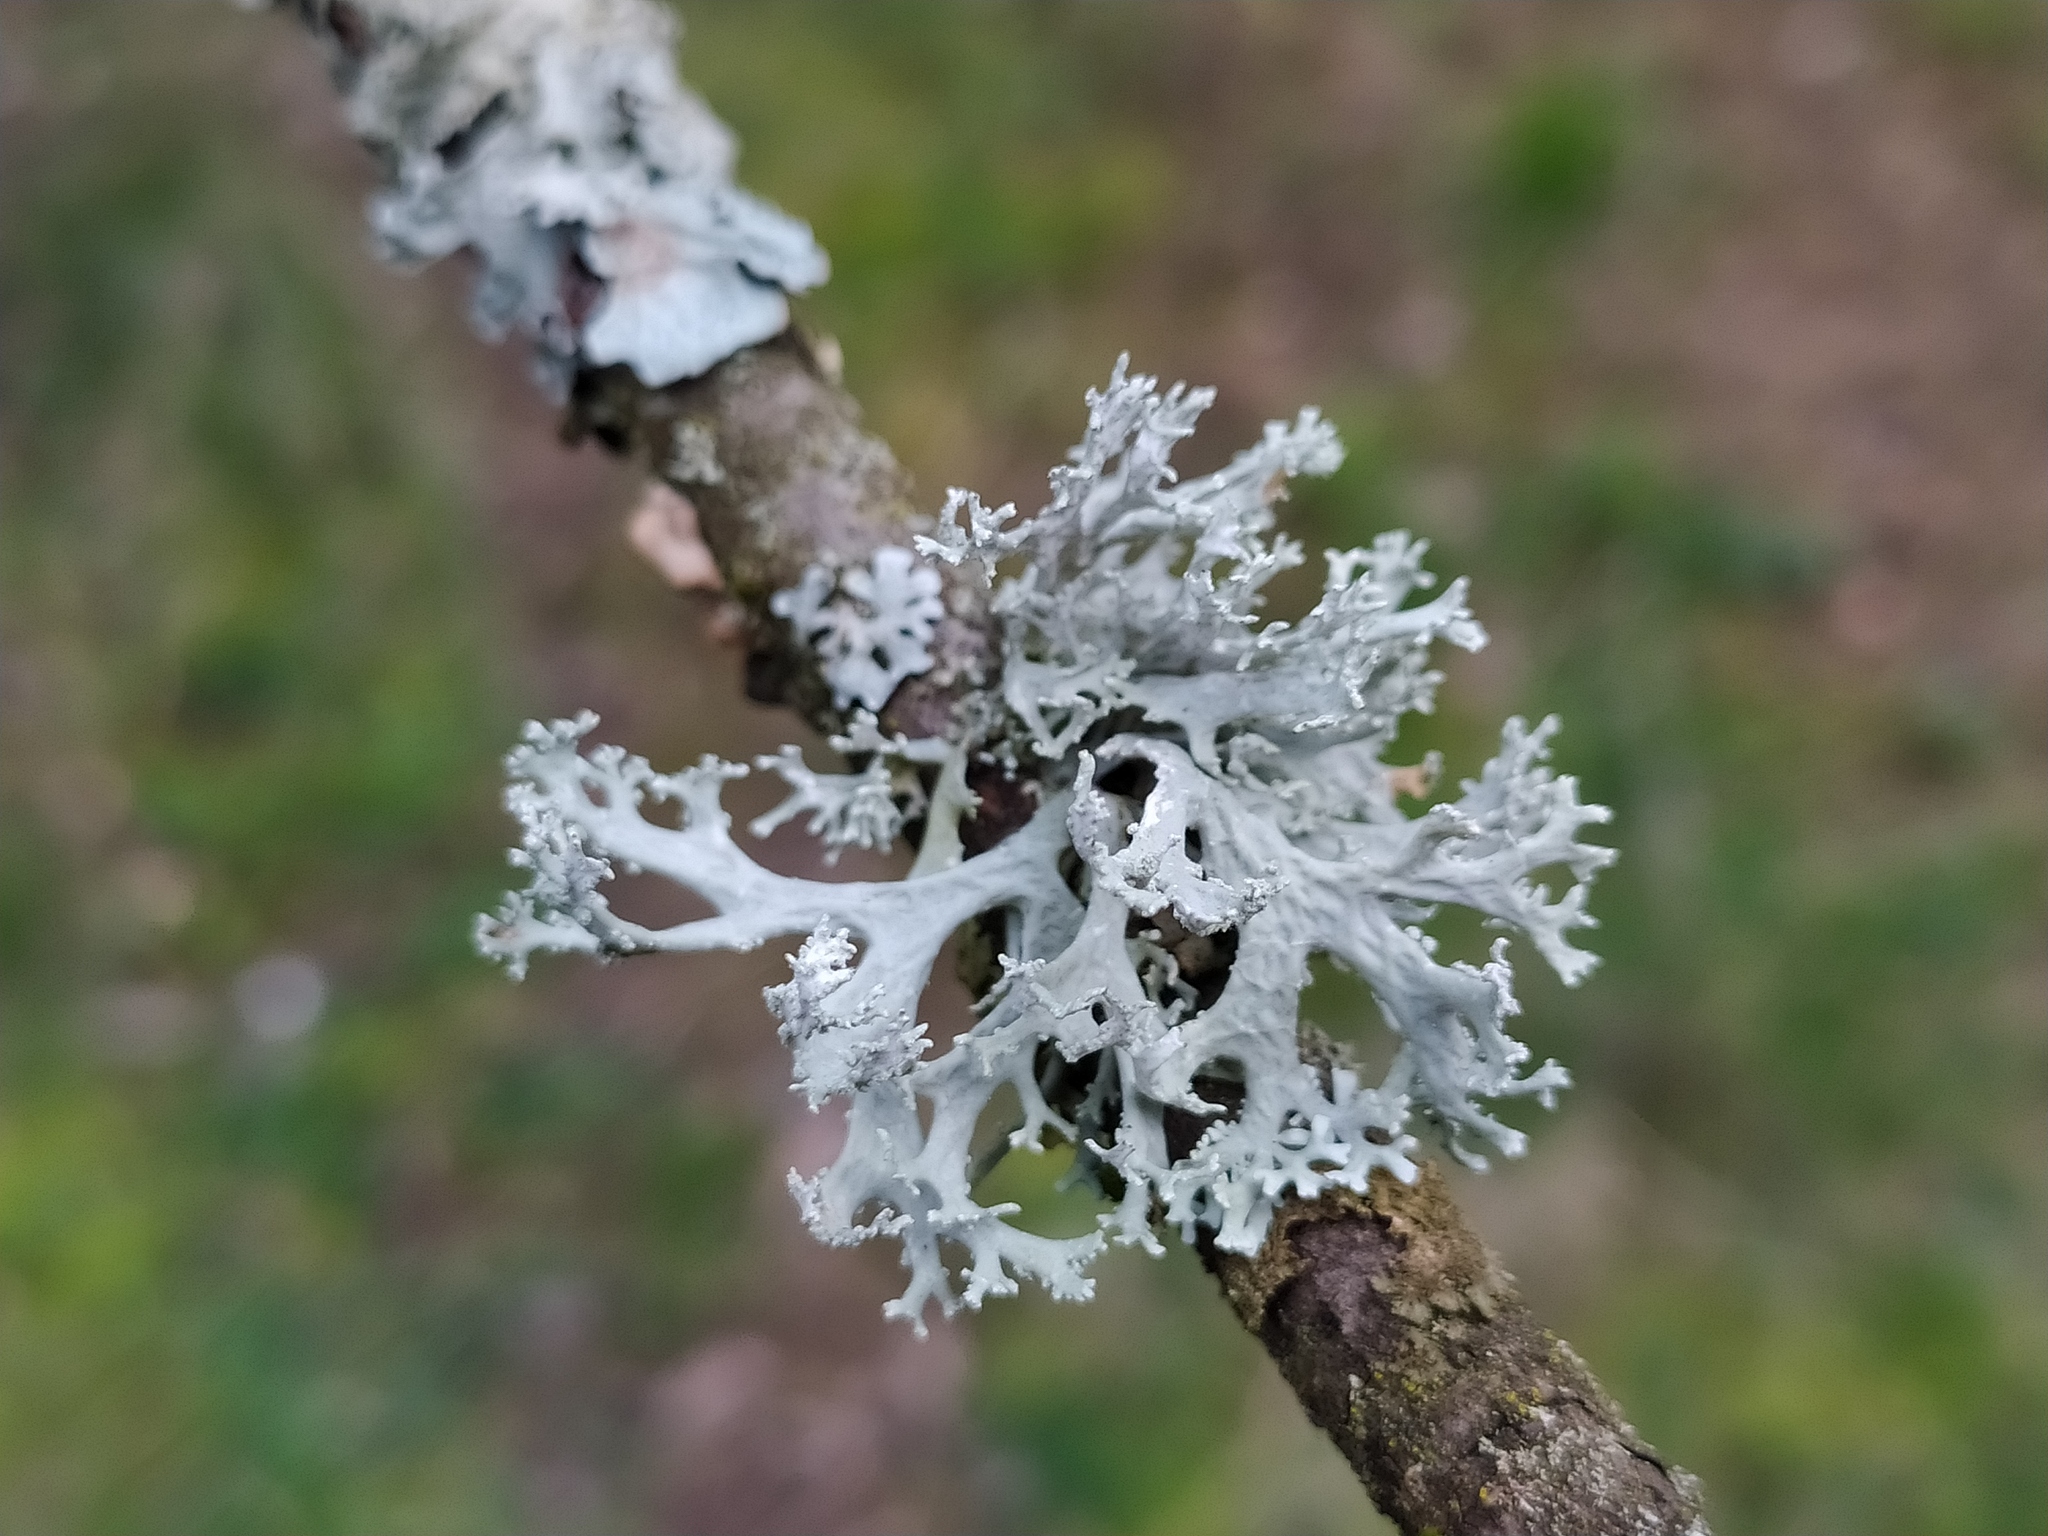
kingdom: Fungi
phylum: Ascomycota
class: Lecanoromycetes
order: Lecanorales
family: Parmeliaceae
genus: Evernia
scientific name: Evernia prunastri
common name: Oak moss
